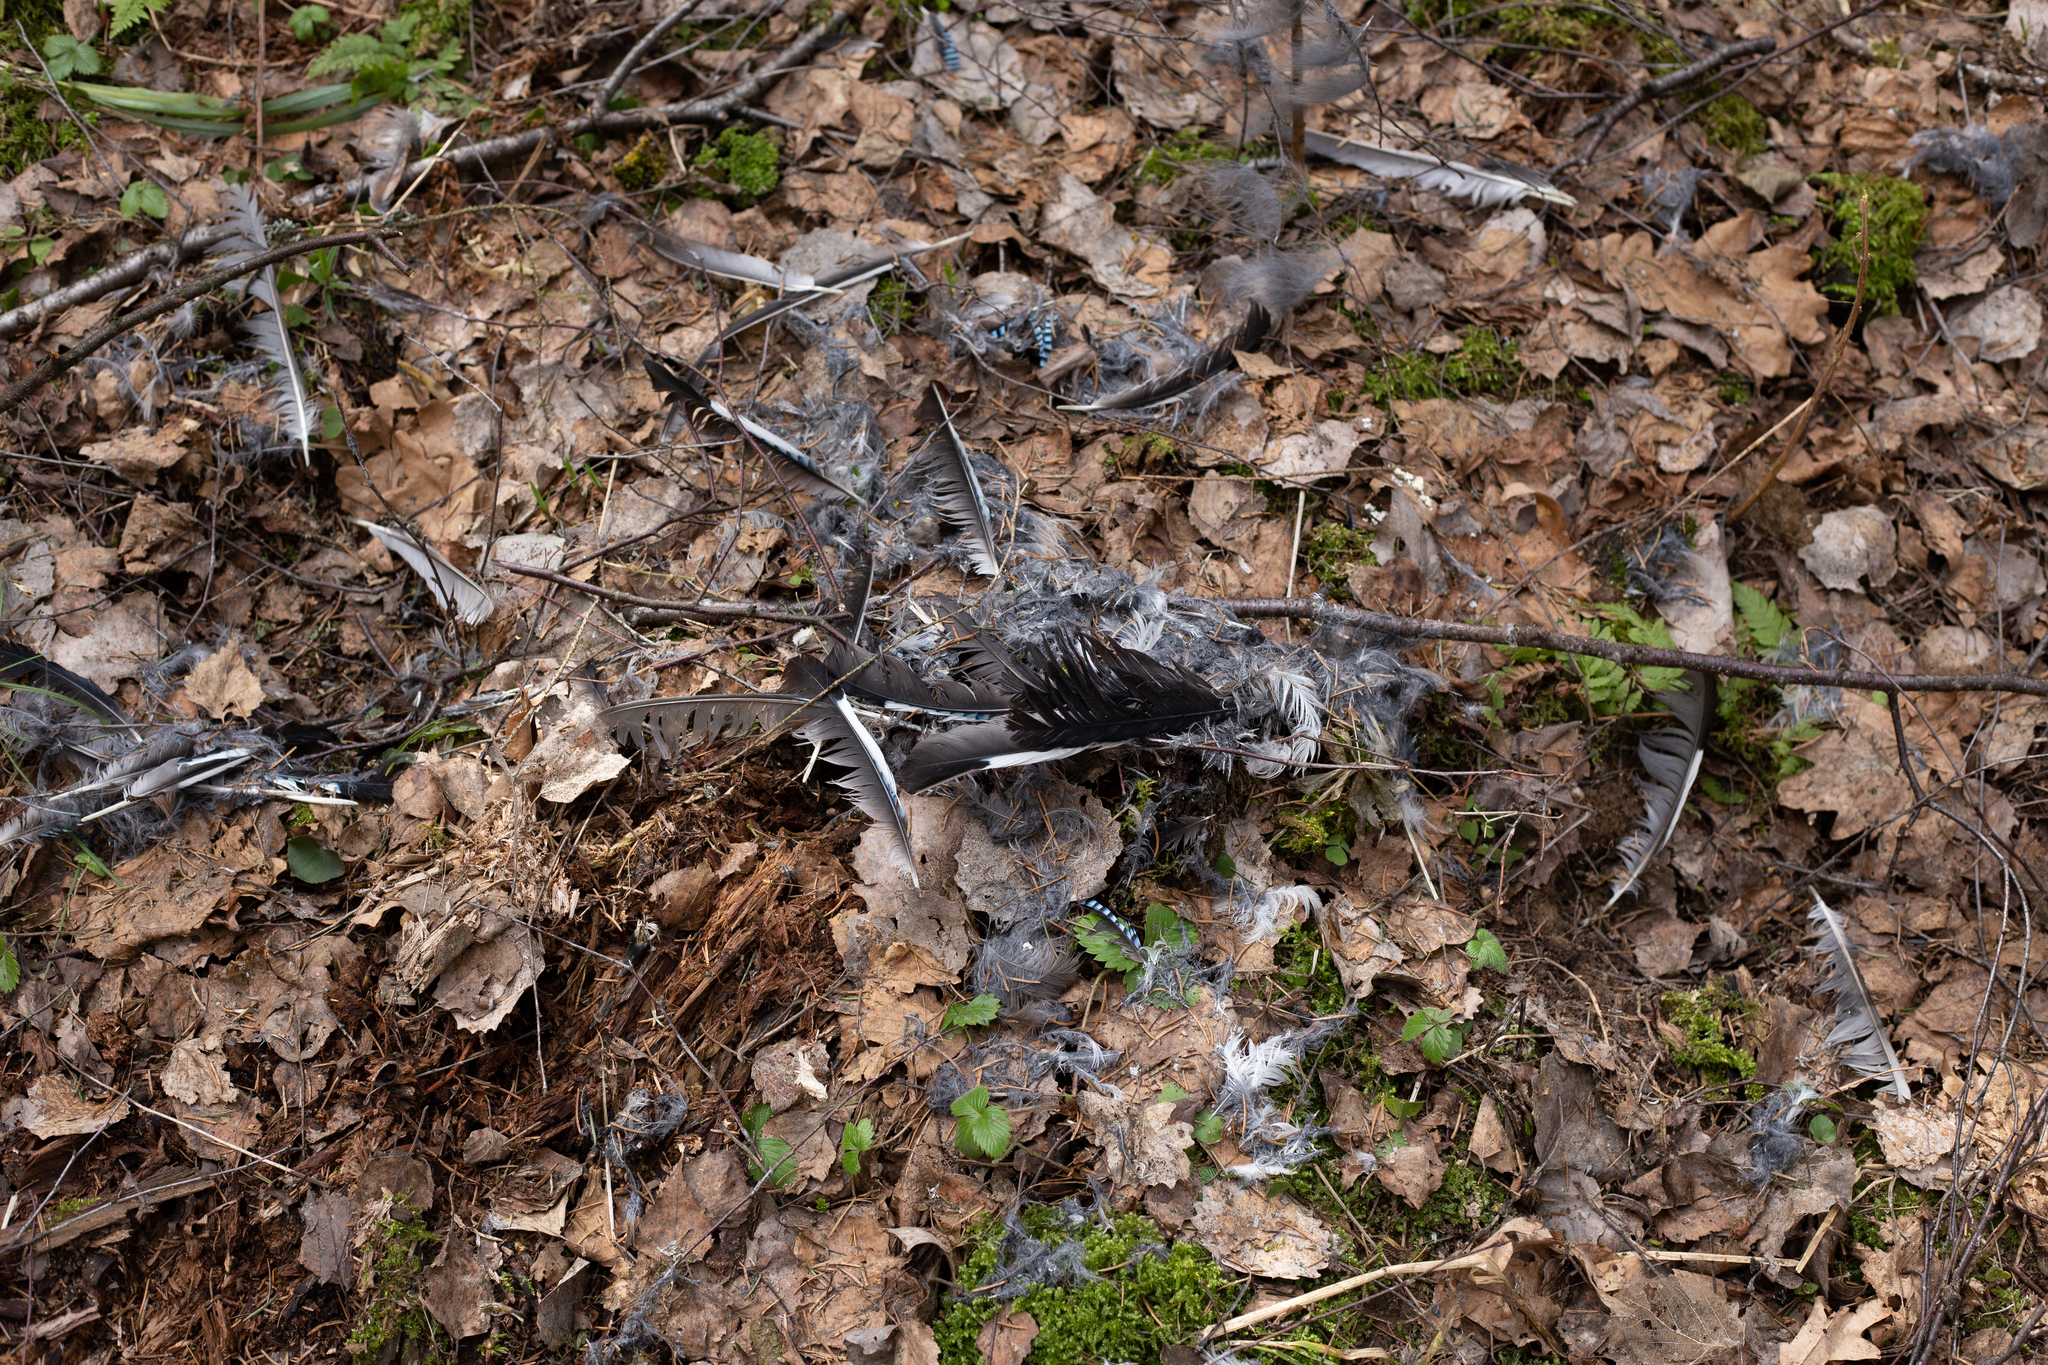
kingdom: Animalia
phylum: Chordata
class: Aves
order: Passeriformes
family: Corvidae
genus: Garrulus
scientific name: Garrulus glandarius
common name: Eurasian jay
